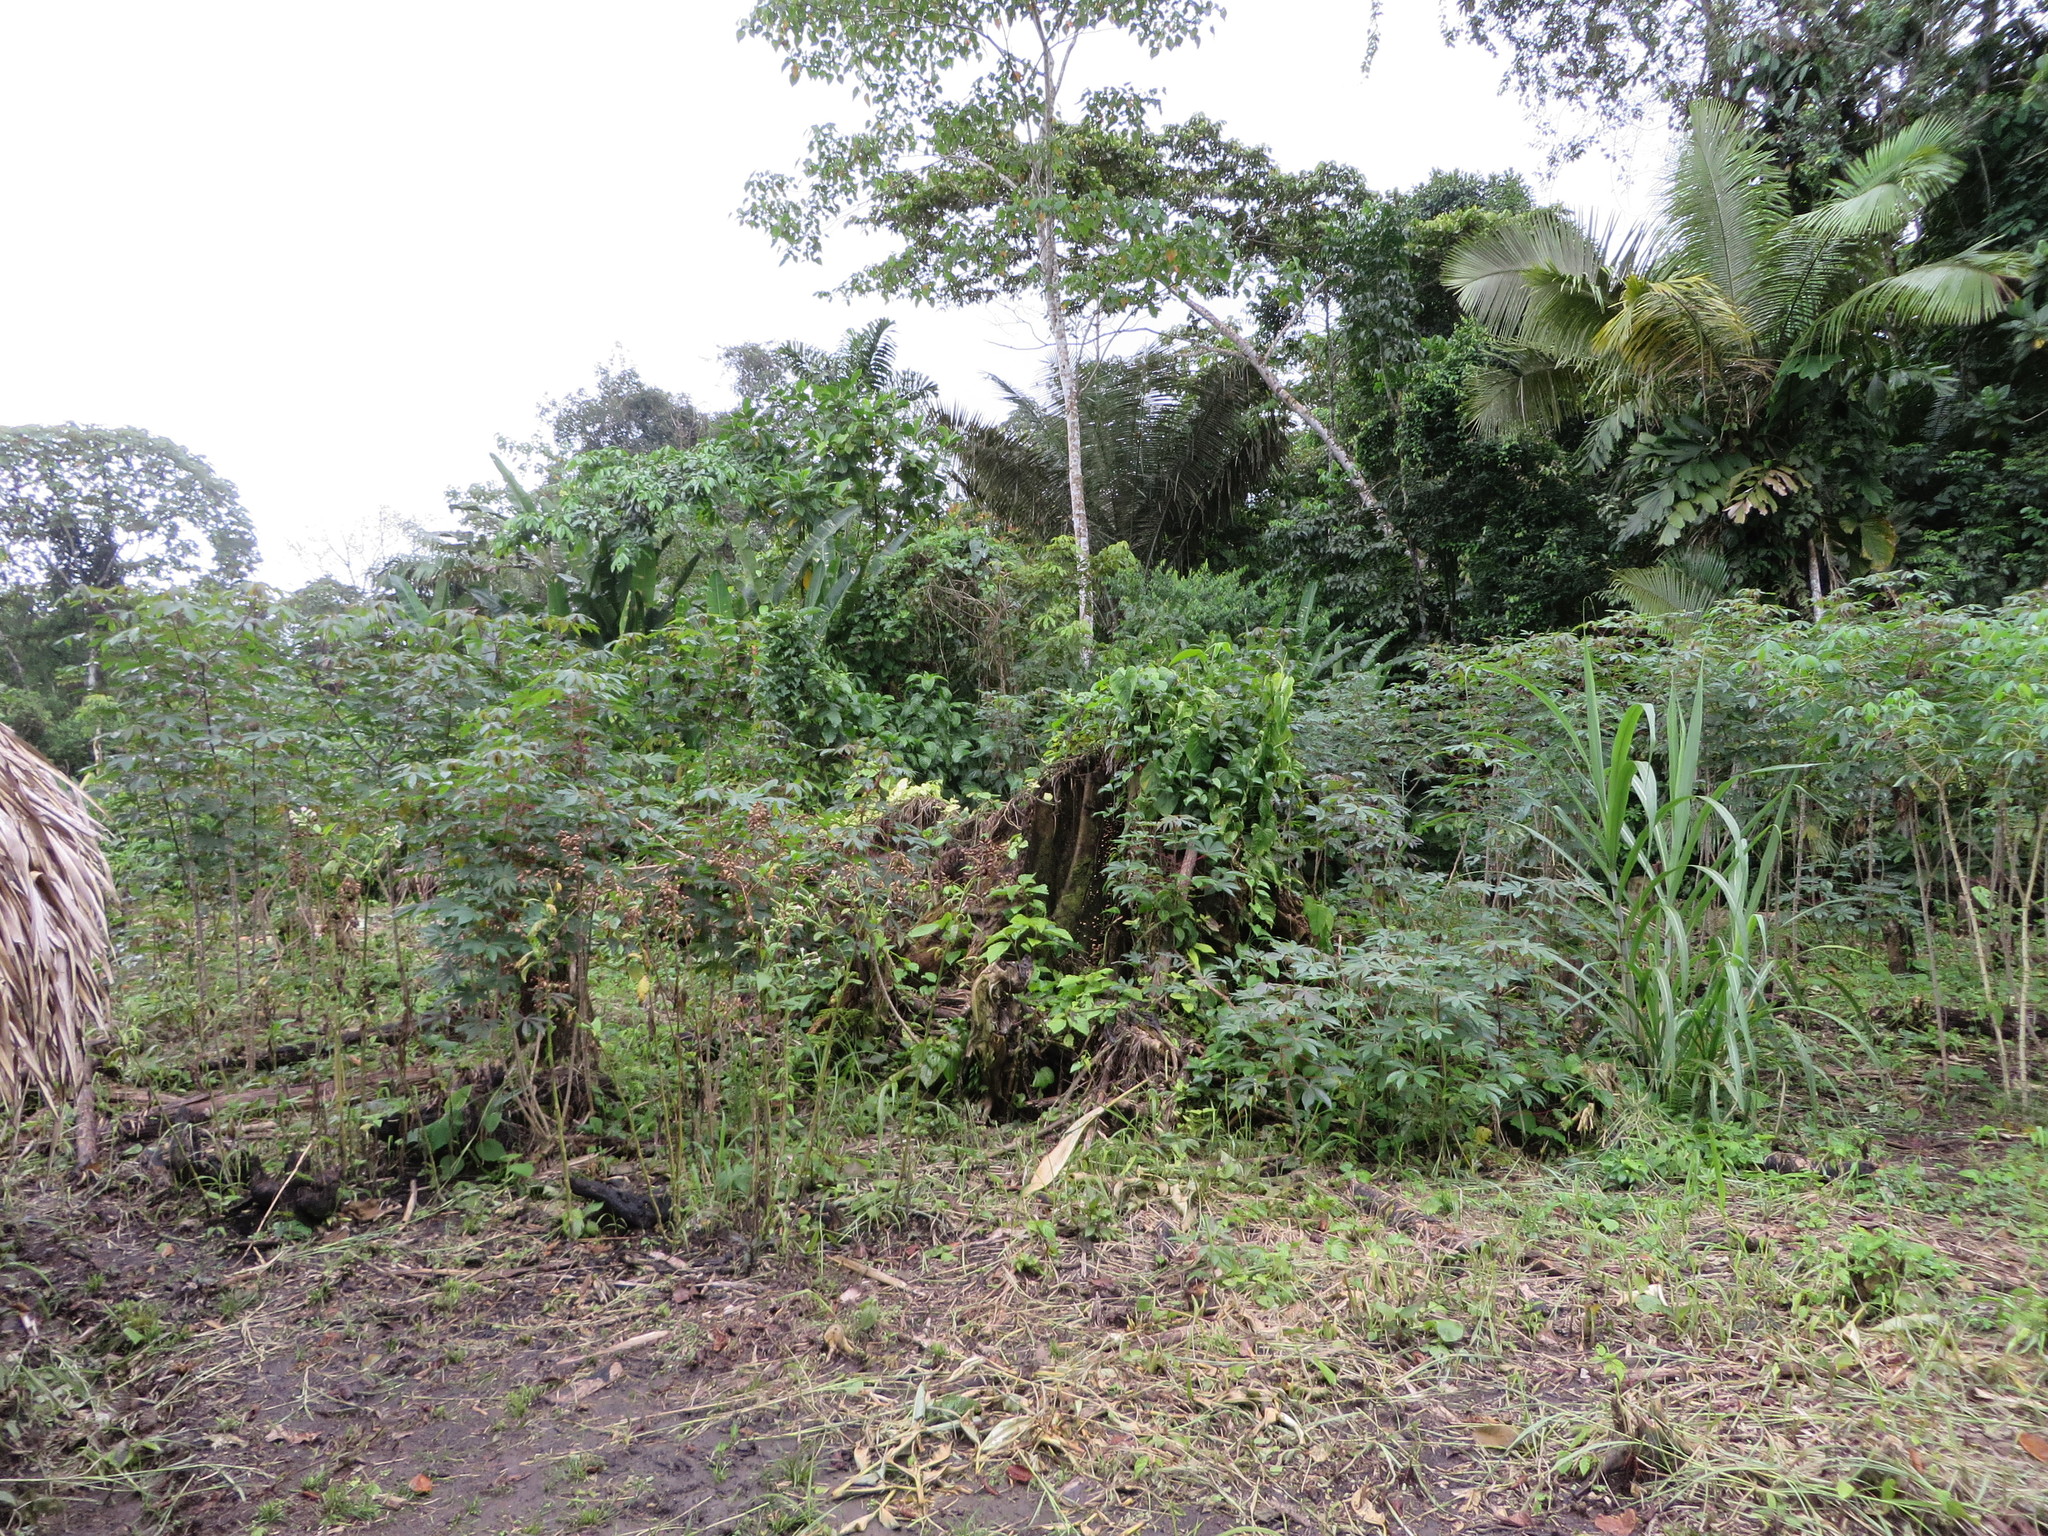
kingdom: Plantae
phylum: Tracheophyta
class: Liliopsida
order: Arecales
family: Arecaceae
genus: Astrocaryum
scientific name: Astrocaryum murumuru
